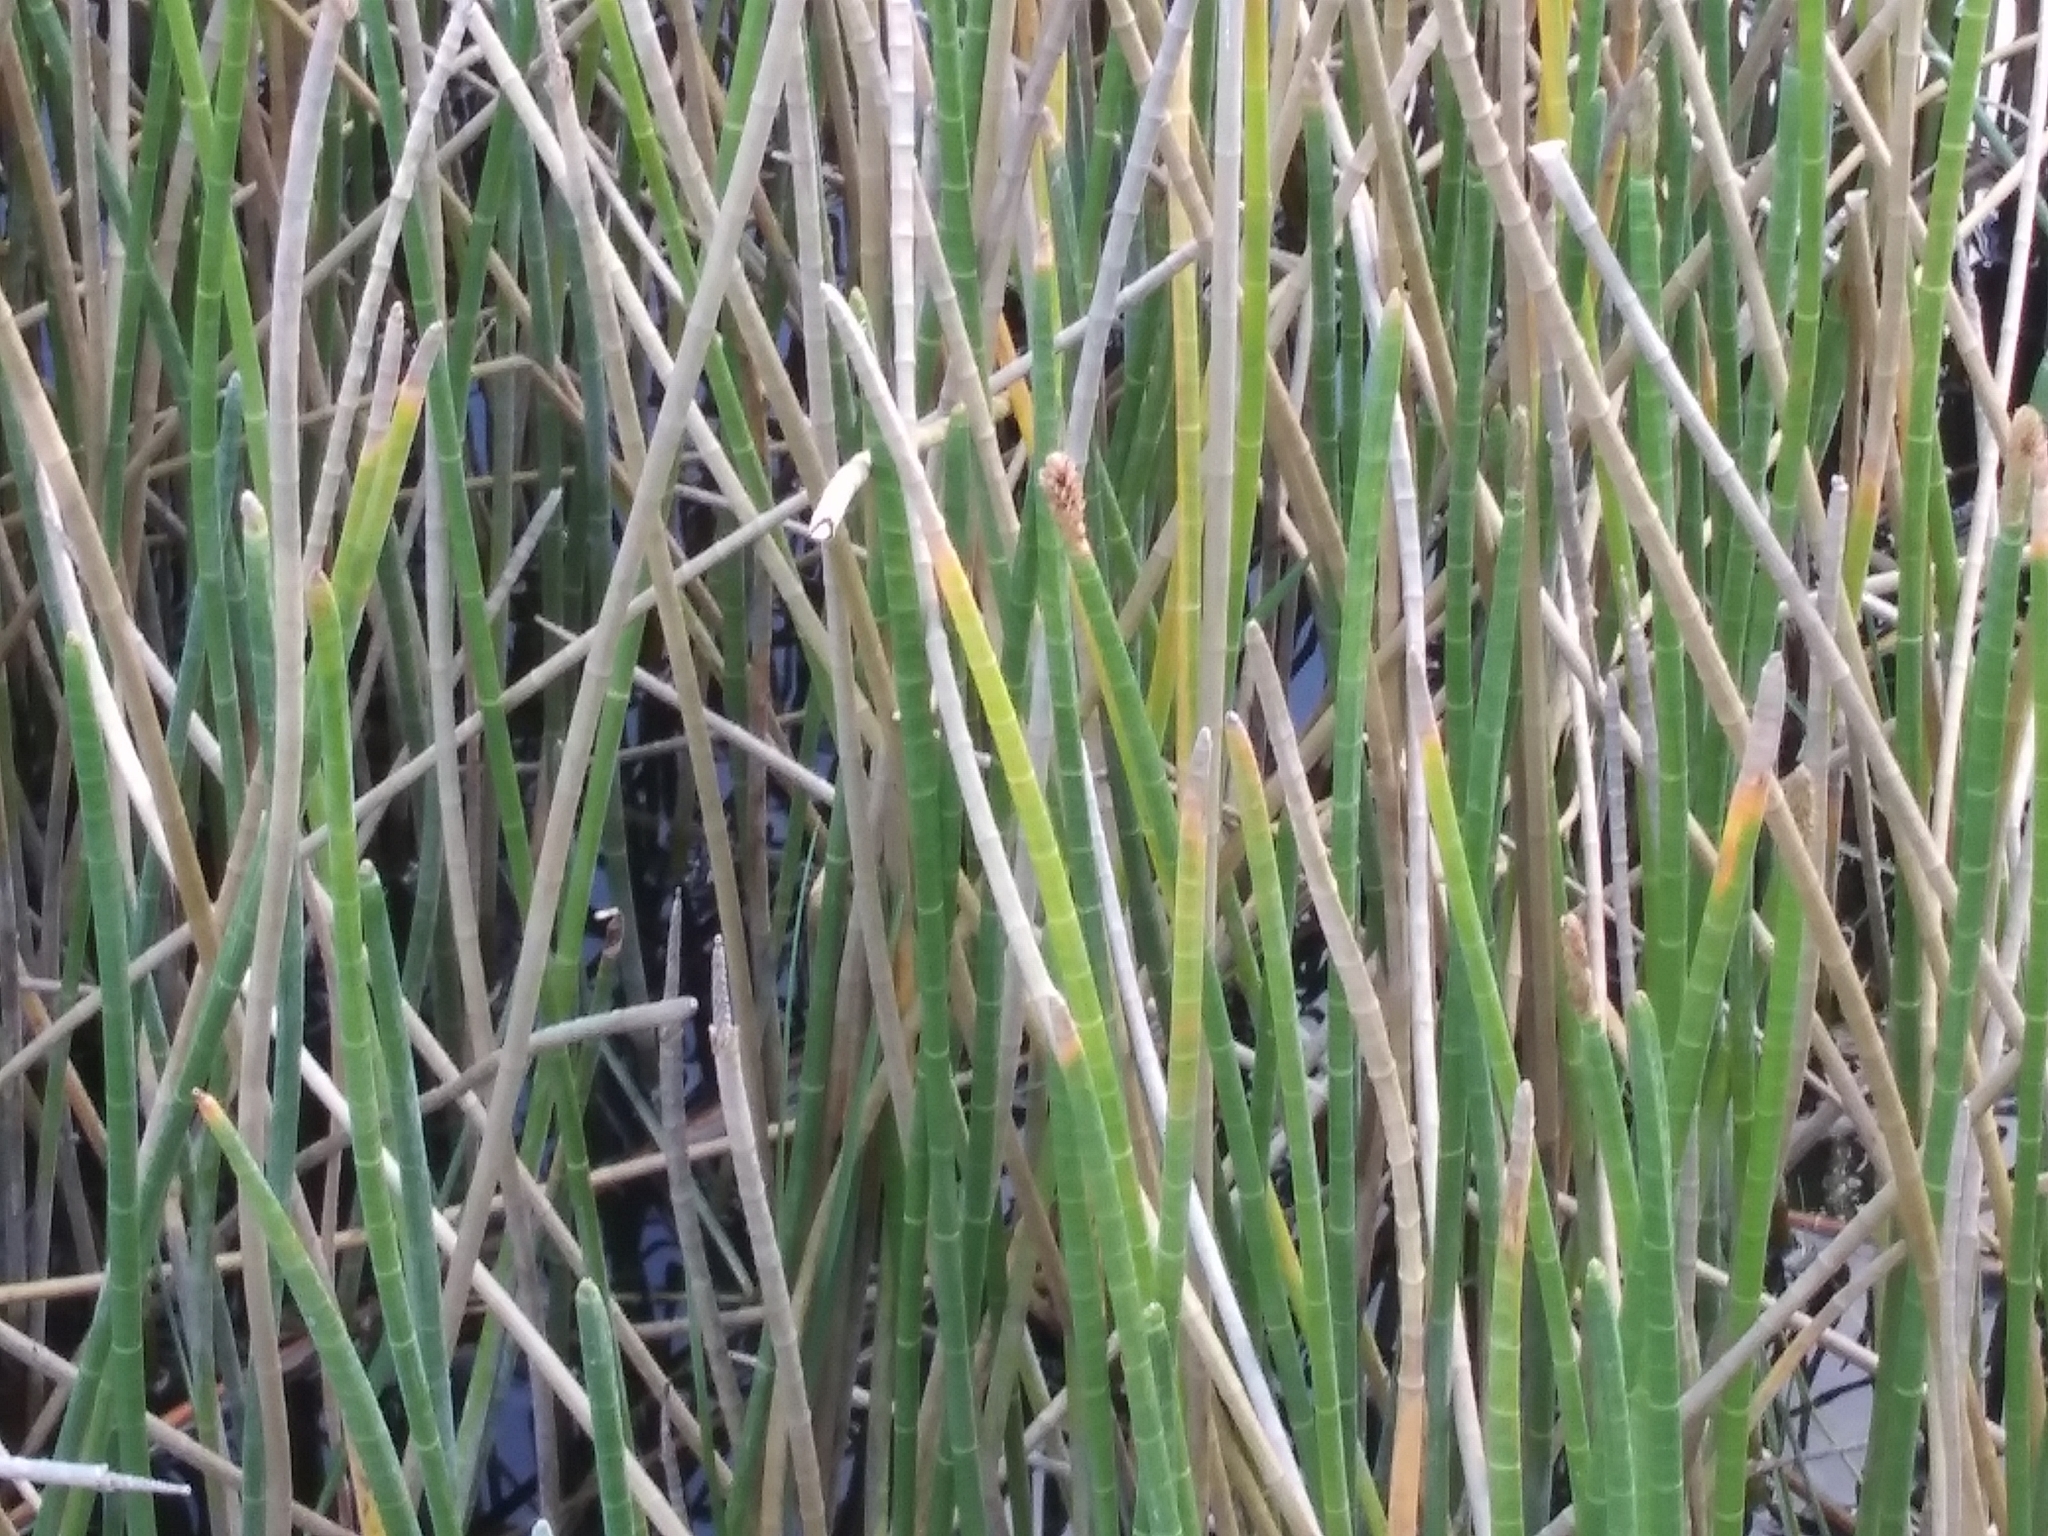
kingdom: Plantae
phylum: Tracheophyta
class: Liliopsida
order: Poales
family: Cyperaceae
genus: Eleocharis
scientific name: Eleocharis interstincta
